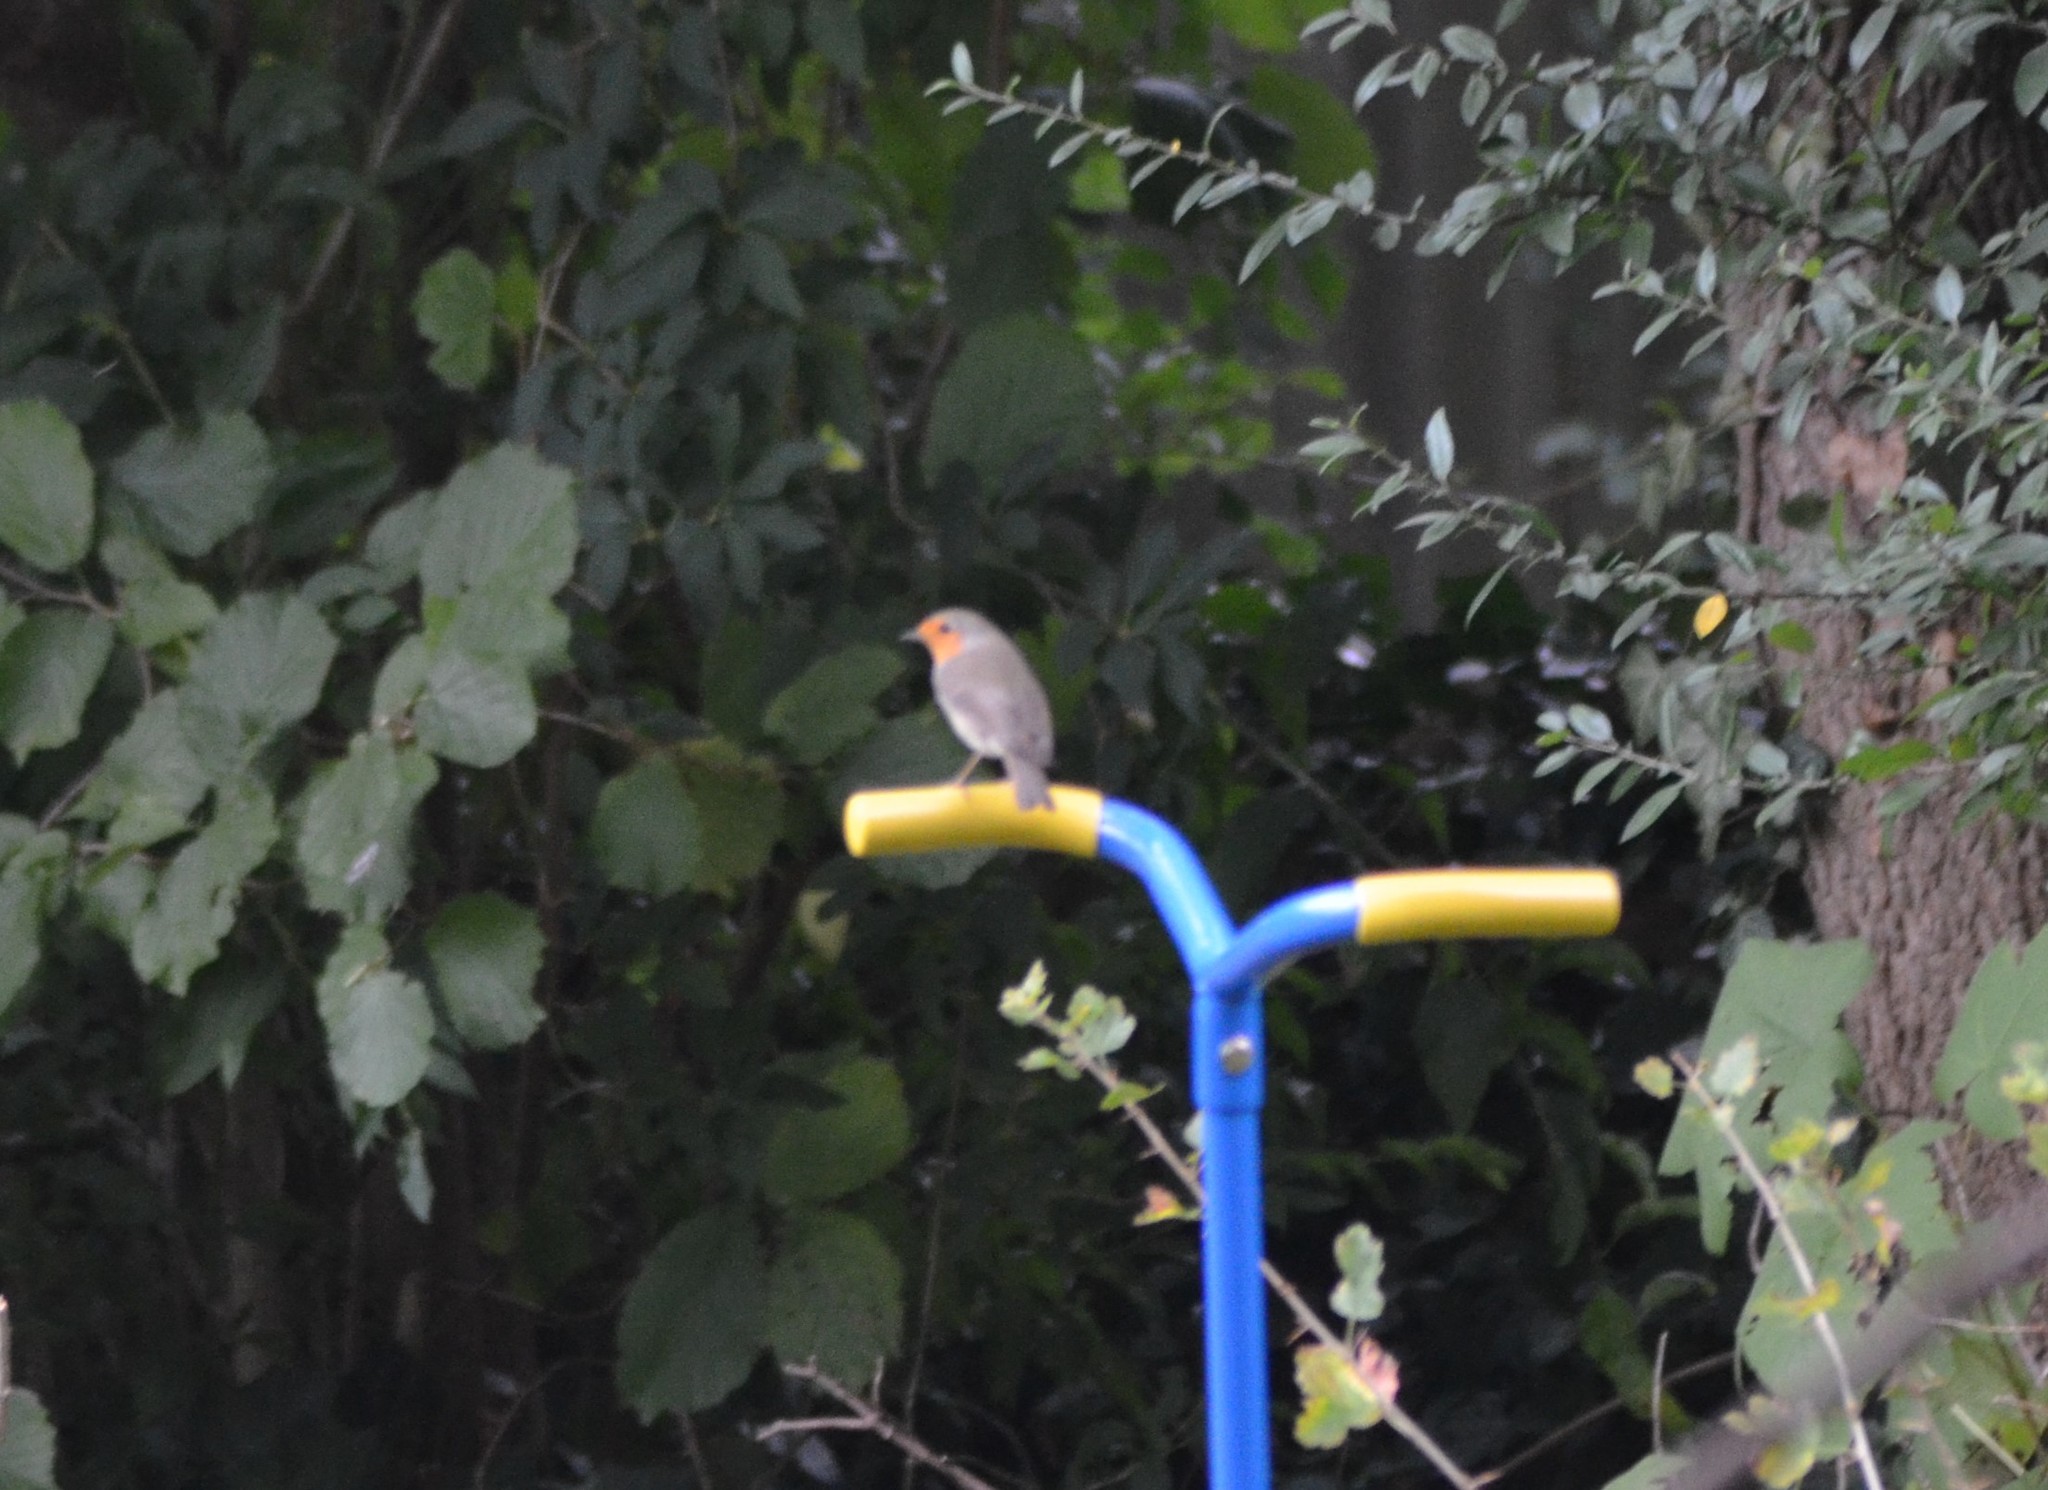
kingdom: Animalia
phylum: Chordata
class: Aves
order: Passeriformes
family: Muscicapidae
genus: Erithacus
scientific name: Erithacus rubecula
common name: European robin
